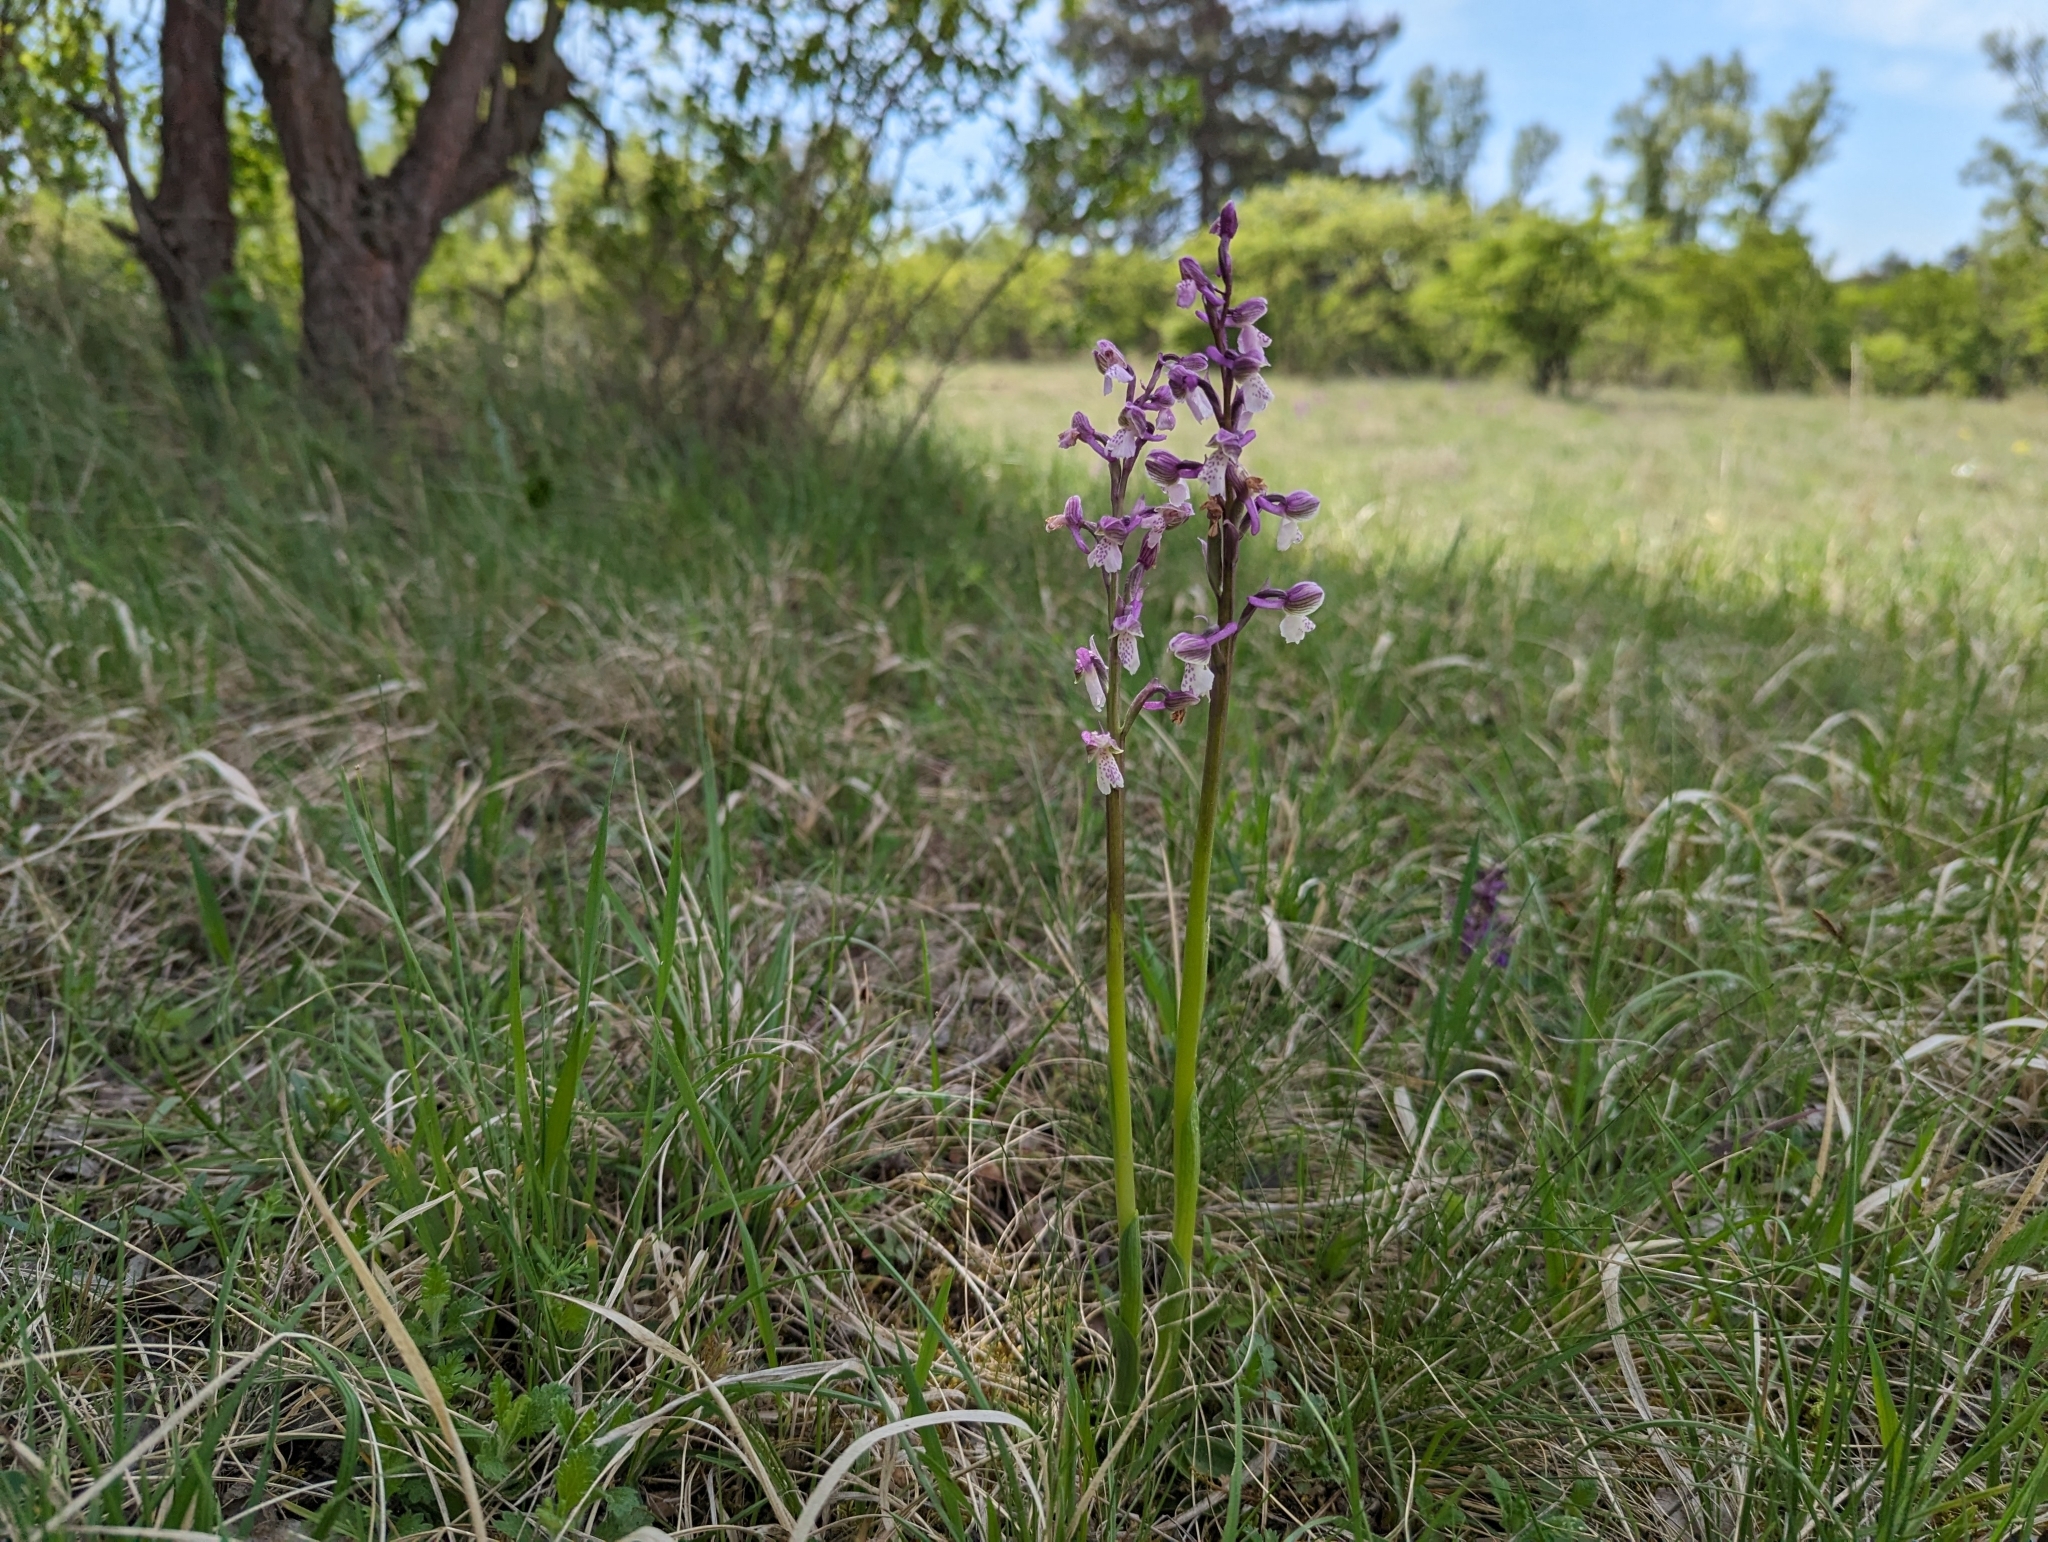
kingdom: Plantae
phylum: Tracheophyta
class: Liliopsida
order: Asparagales
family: Orchidaceae
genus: Anacamptis
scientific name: Anacamptis morio
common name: Green-winged orchid
